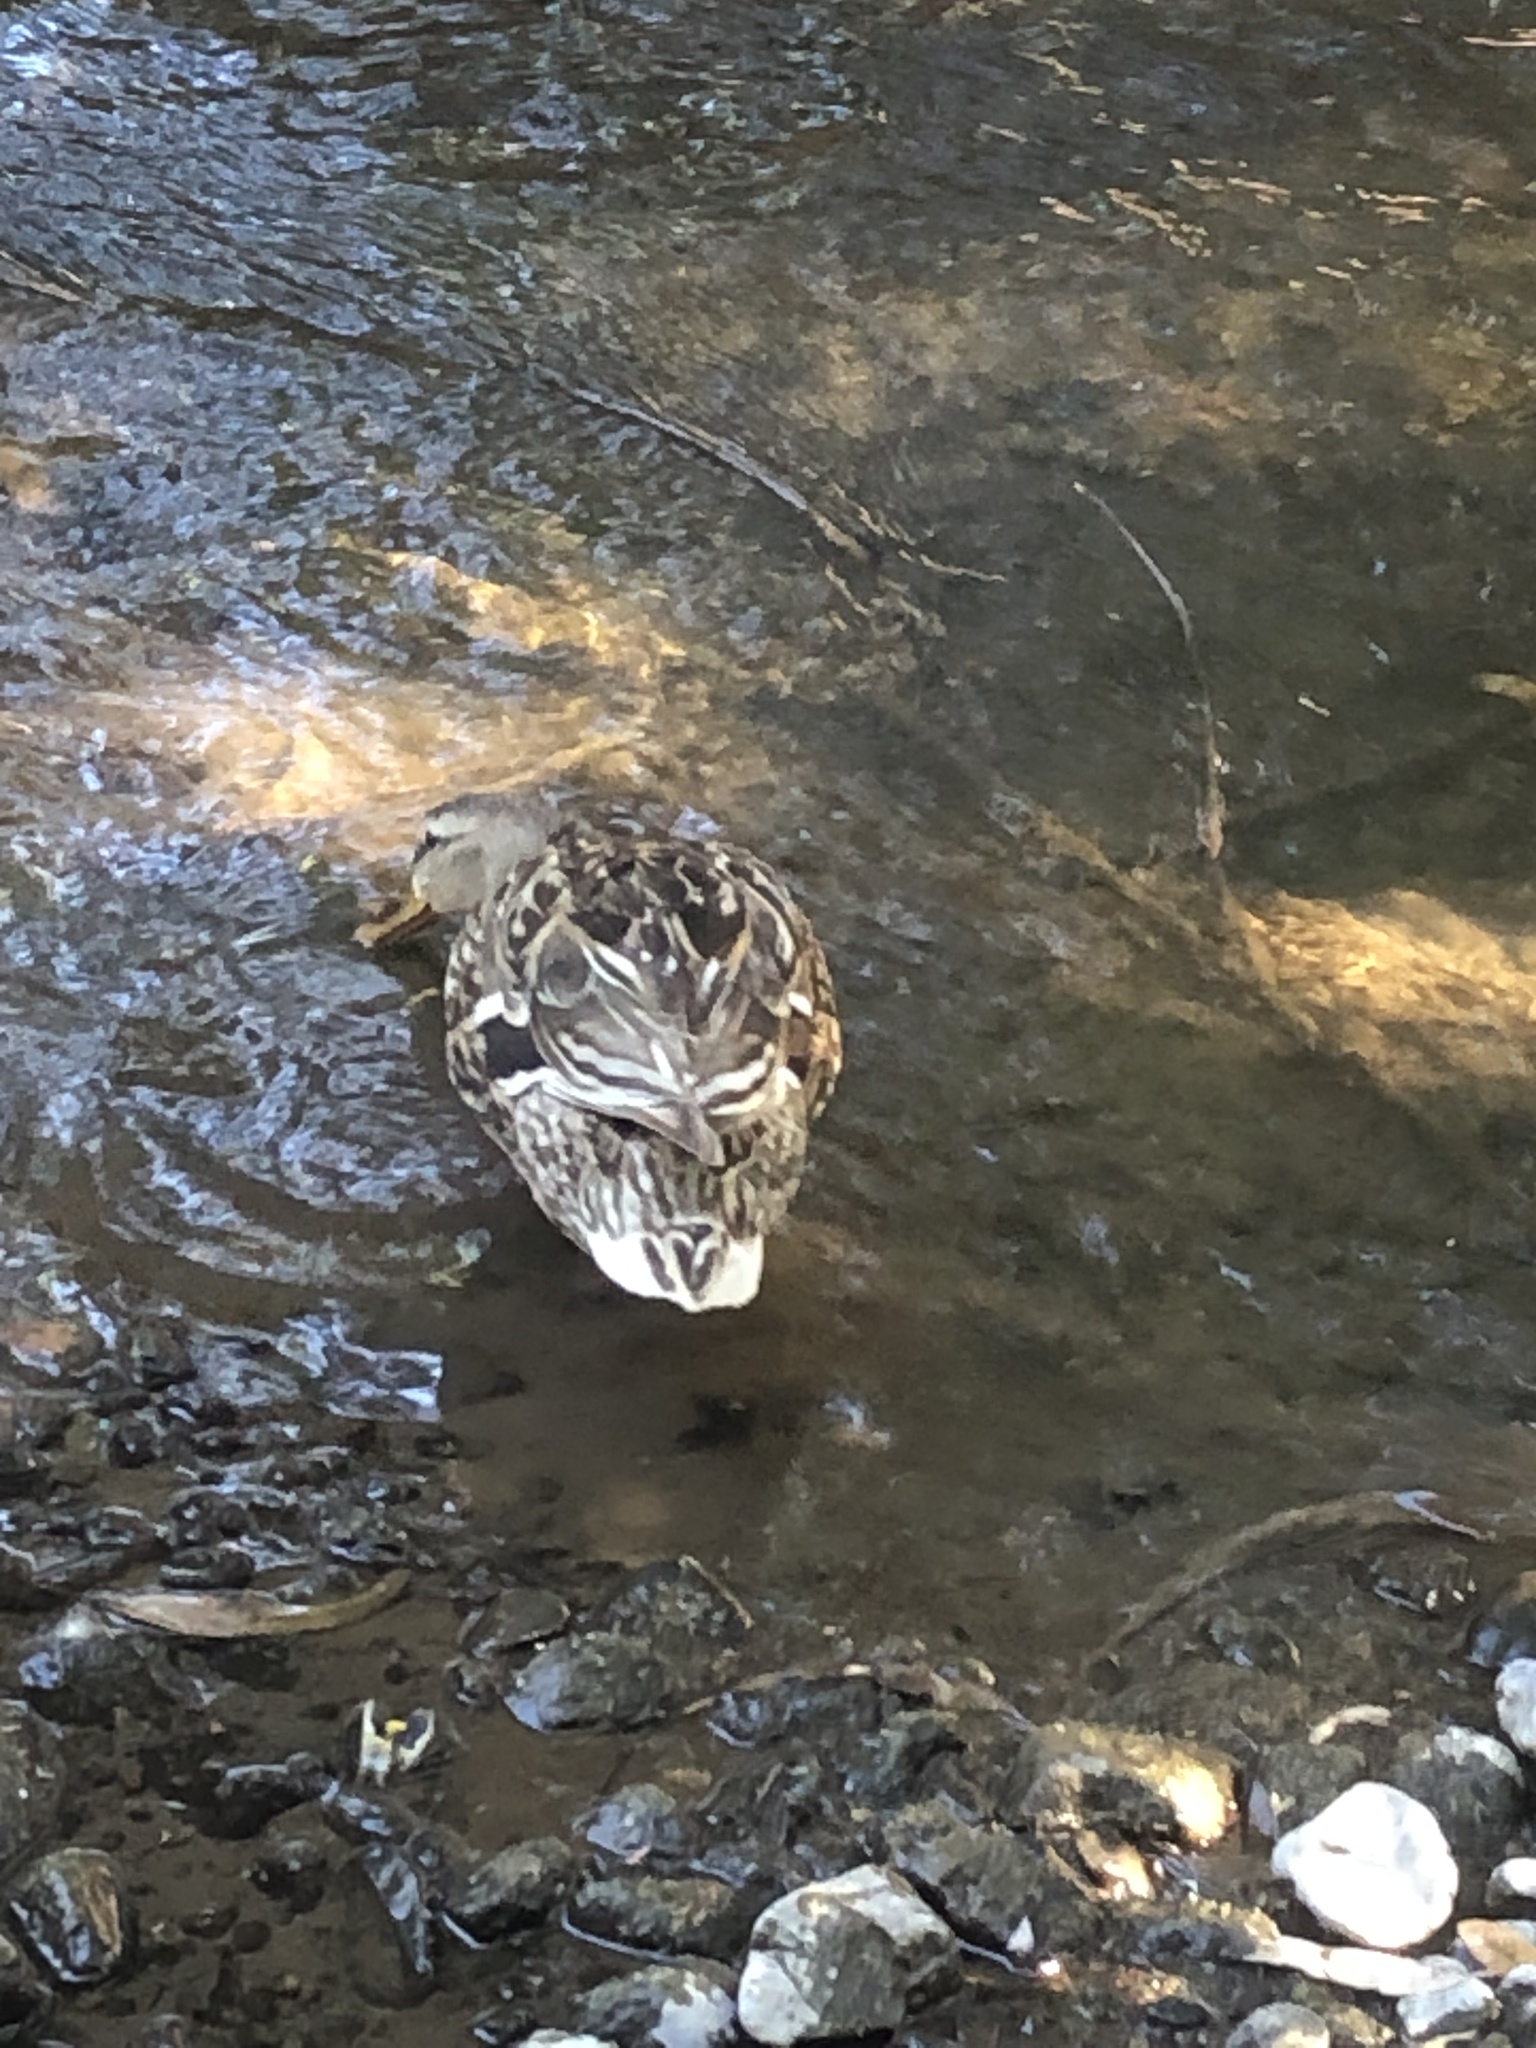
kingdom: Animalia
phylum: Chordata
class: Aves
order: Anseriformes
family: Anatidae
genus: Anas
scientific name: Anas platyrhynchos
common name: Mallard
